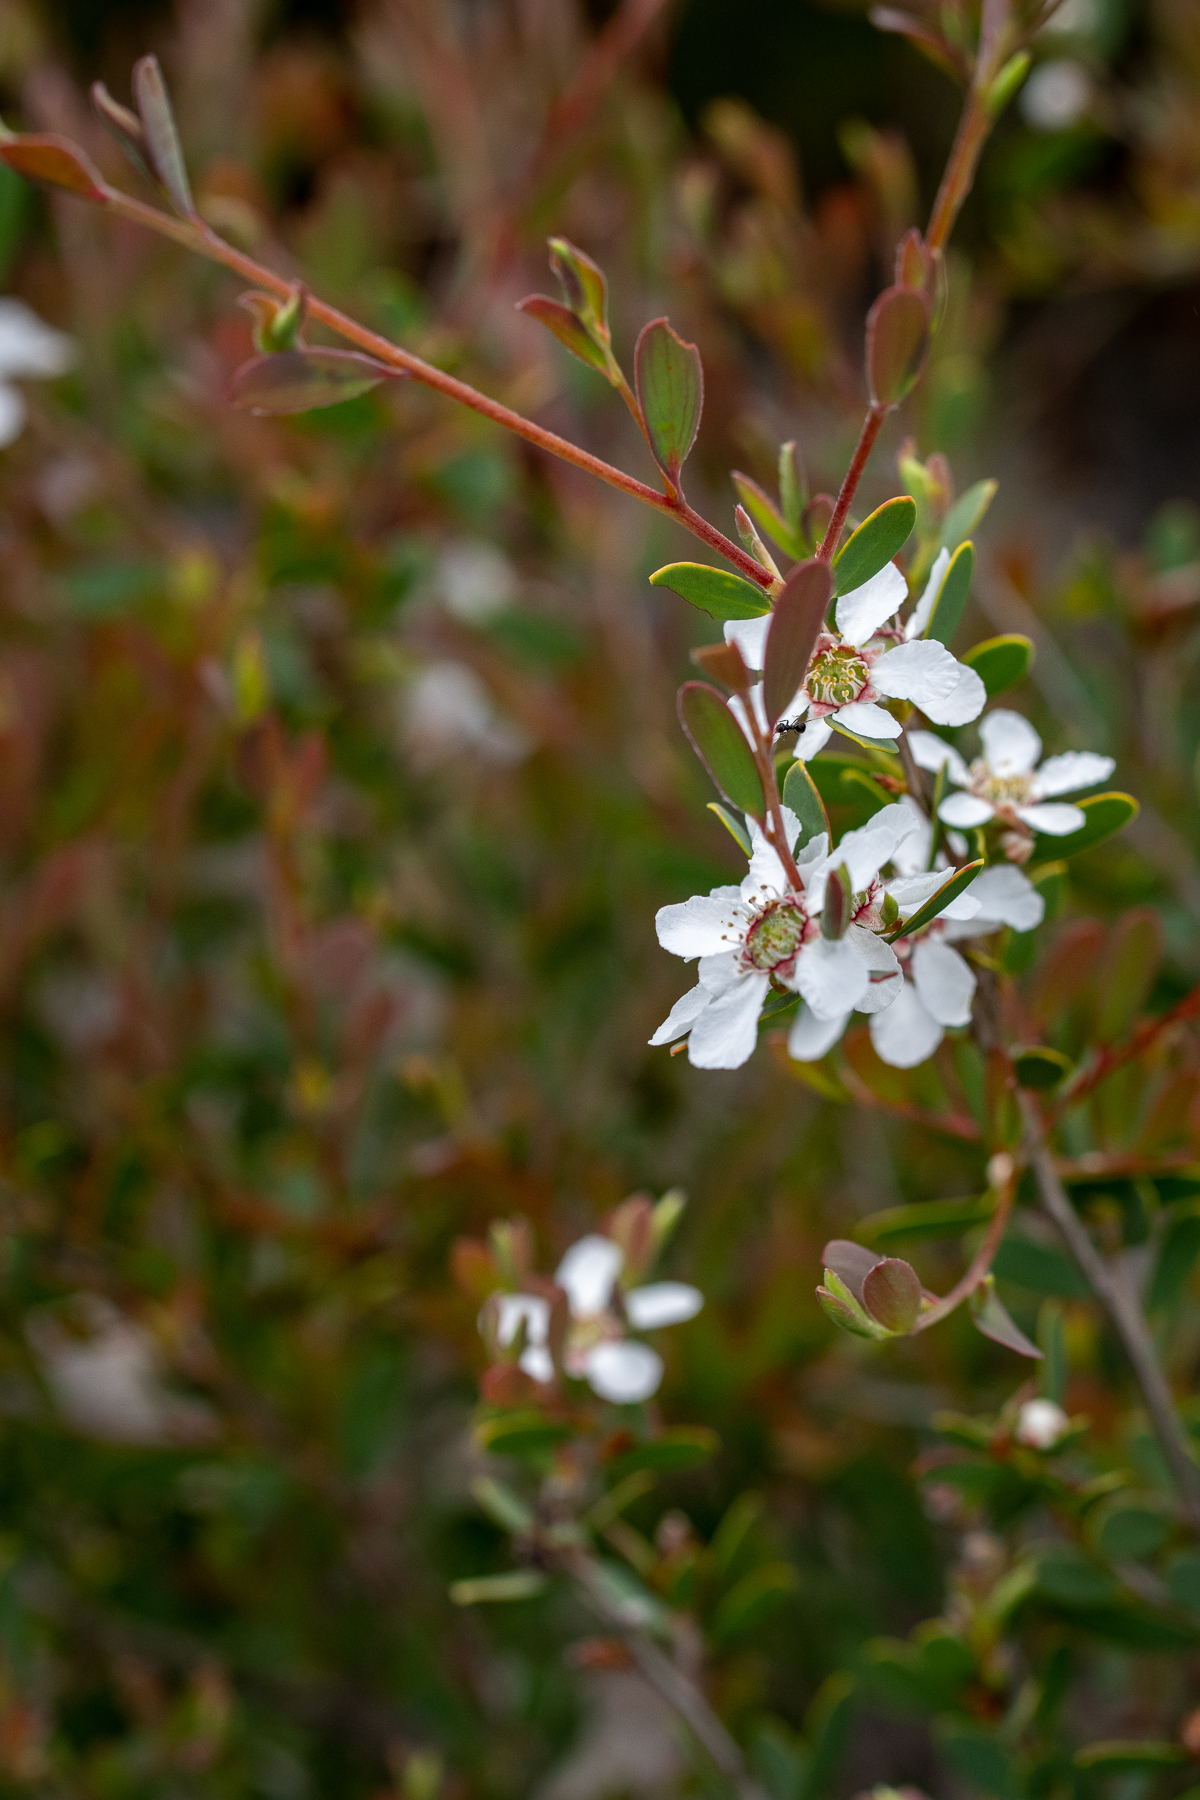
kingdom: Plantae
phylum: Tracheophyta
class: Magnoliopsida
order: Myrtales
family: Myrtaceae
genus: Leptospermum
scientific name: Leptospermum laevigatum
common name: Australian teatree
